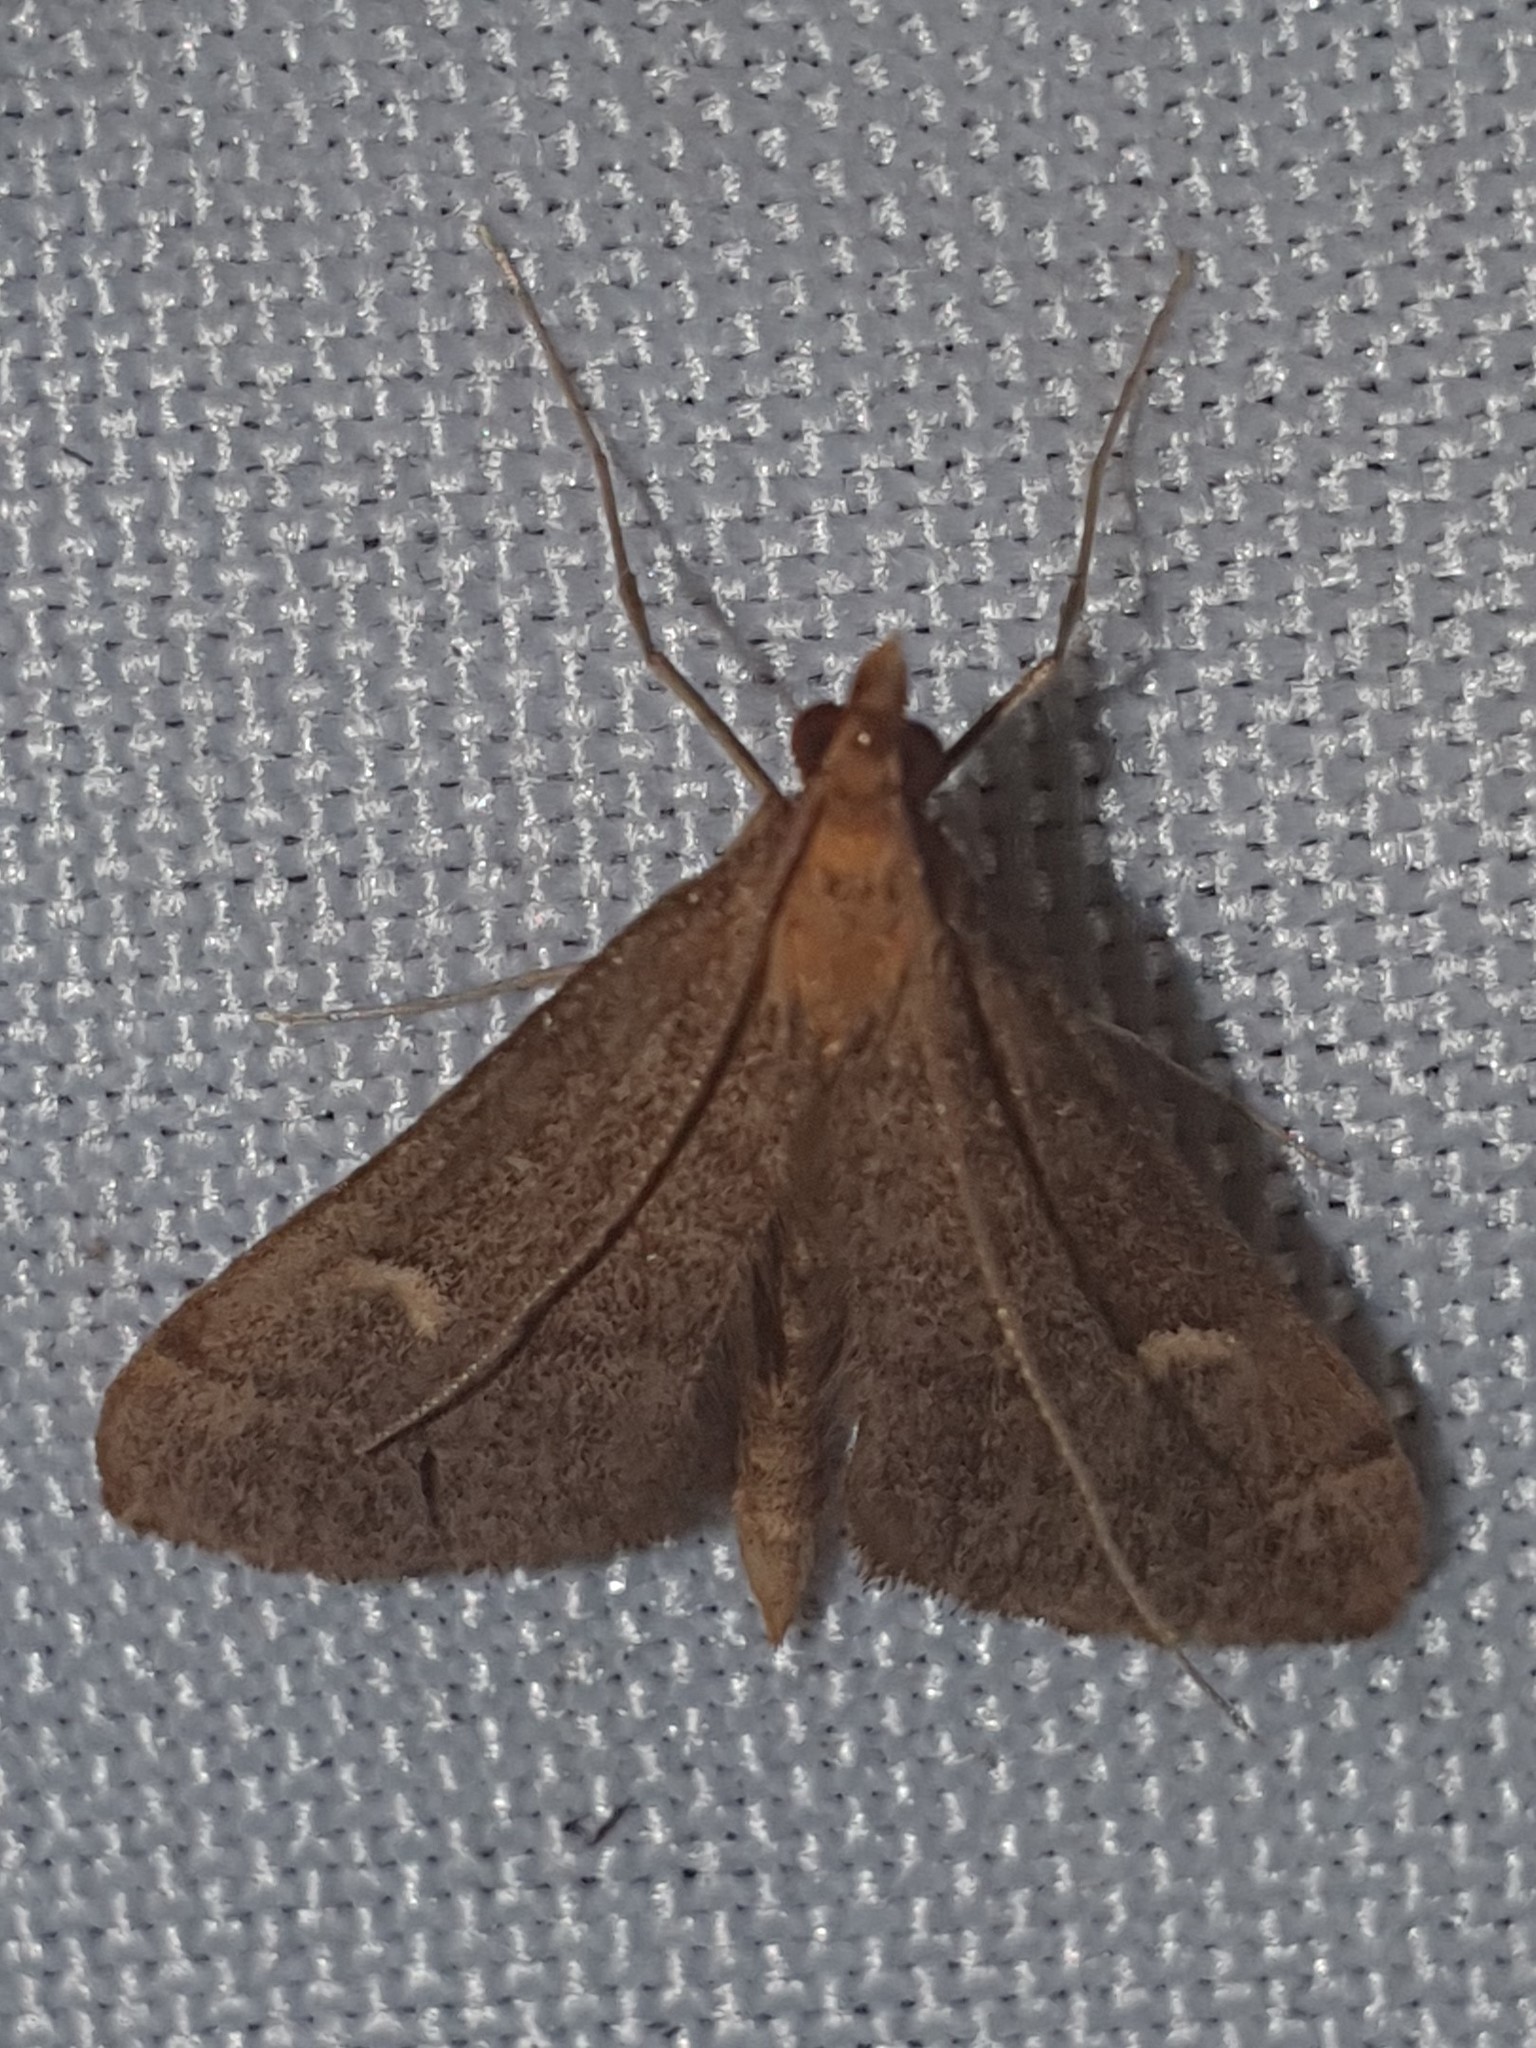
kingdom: Animalia
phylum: Arthropoda
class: Insecta
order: Lepidoptera
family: Crambidae
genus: Stenia
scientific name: Stenia Dolicharthria punctalis
